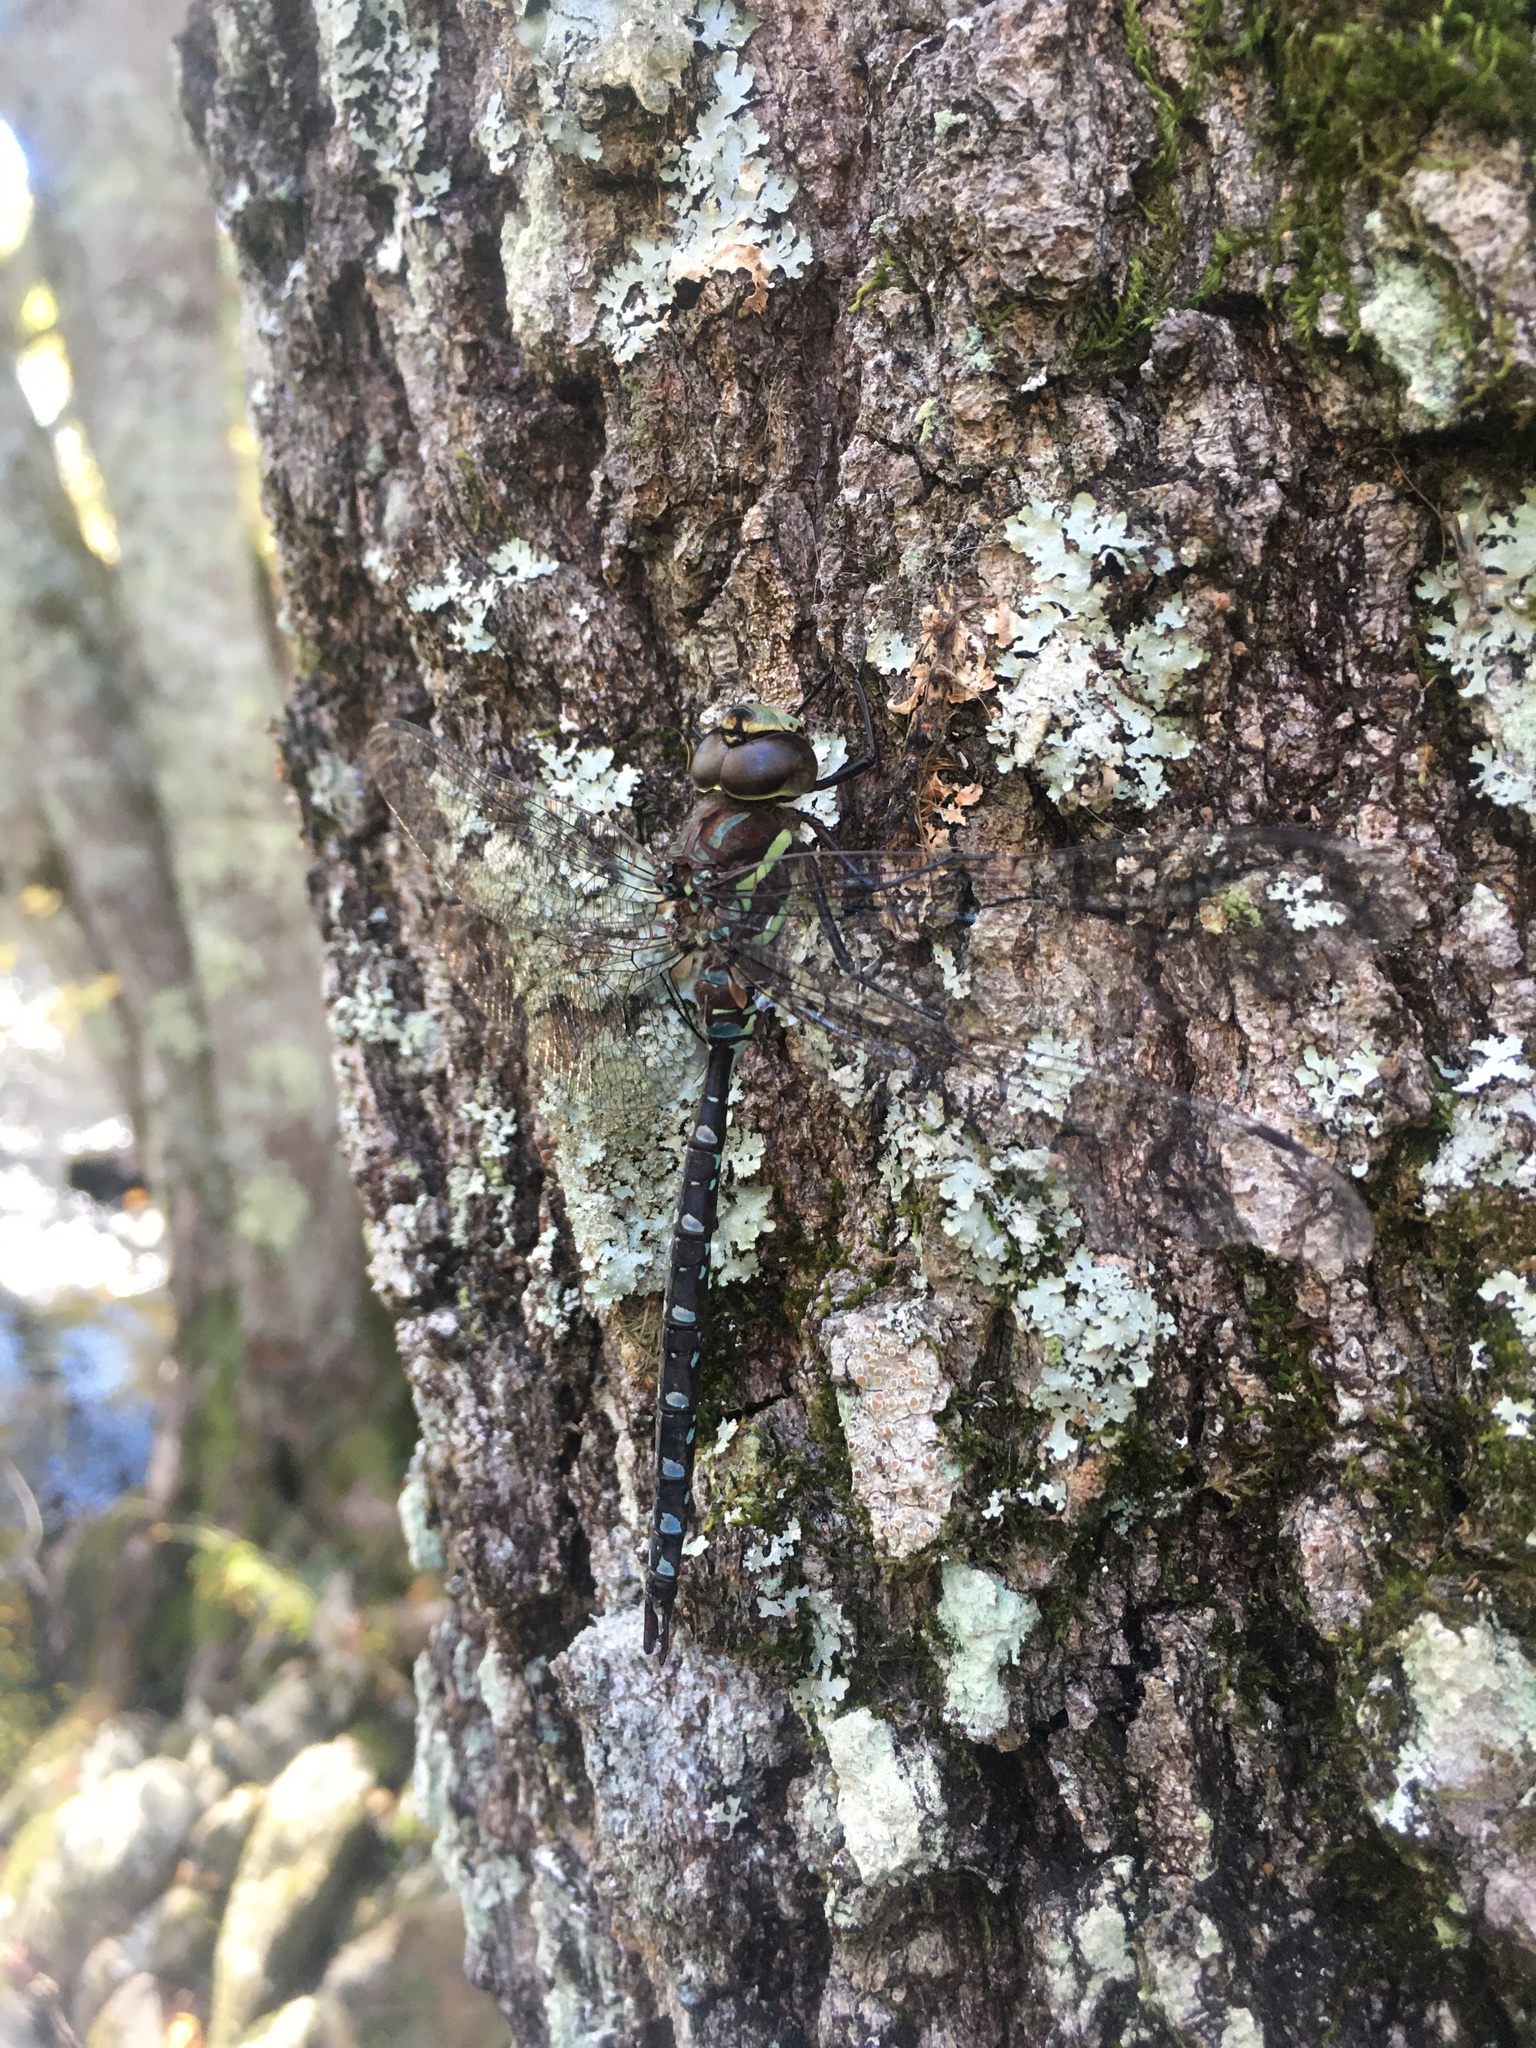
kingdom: Animalia
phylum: Arthropoda
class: Insecta
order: Odonata
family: Aeshnidae
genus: Aeshna
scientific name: Aeshna tuberculifera
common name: Aeschne à tubercules
